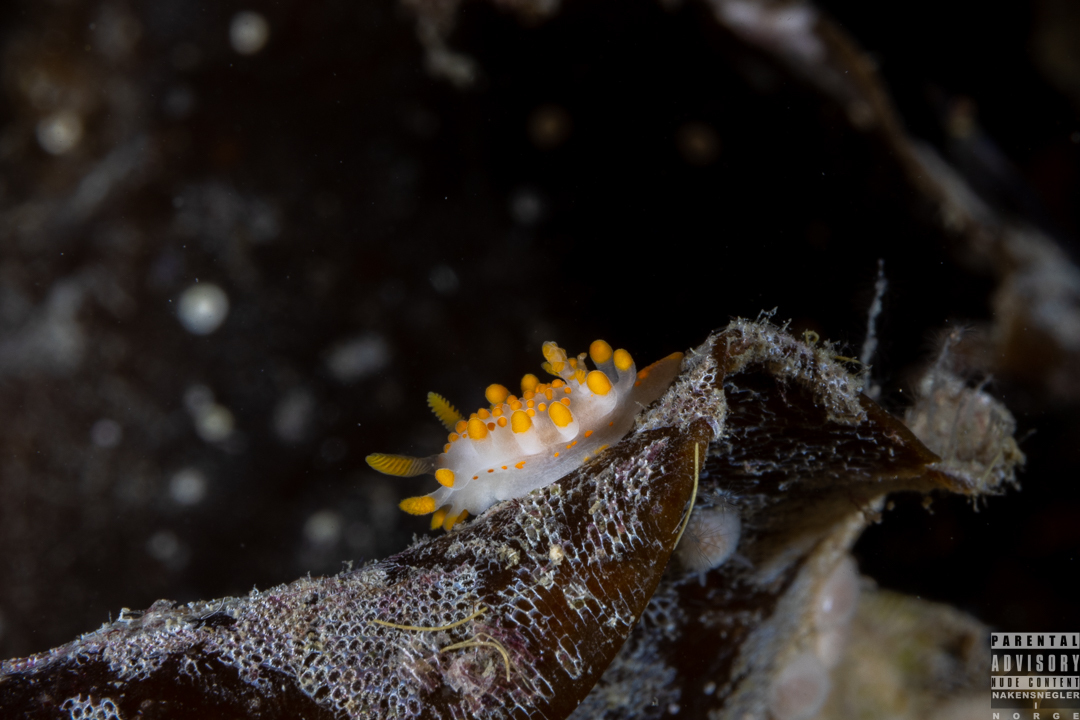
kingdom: Animalia
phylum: Mollusca
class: Gastropoda
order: Nudibranchia
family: Polyceridae
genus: Limacia
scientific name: Limacia clavigera
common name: Orange-clubbed sea slug
